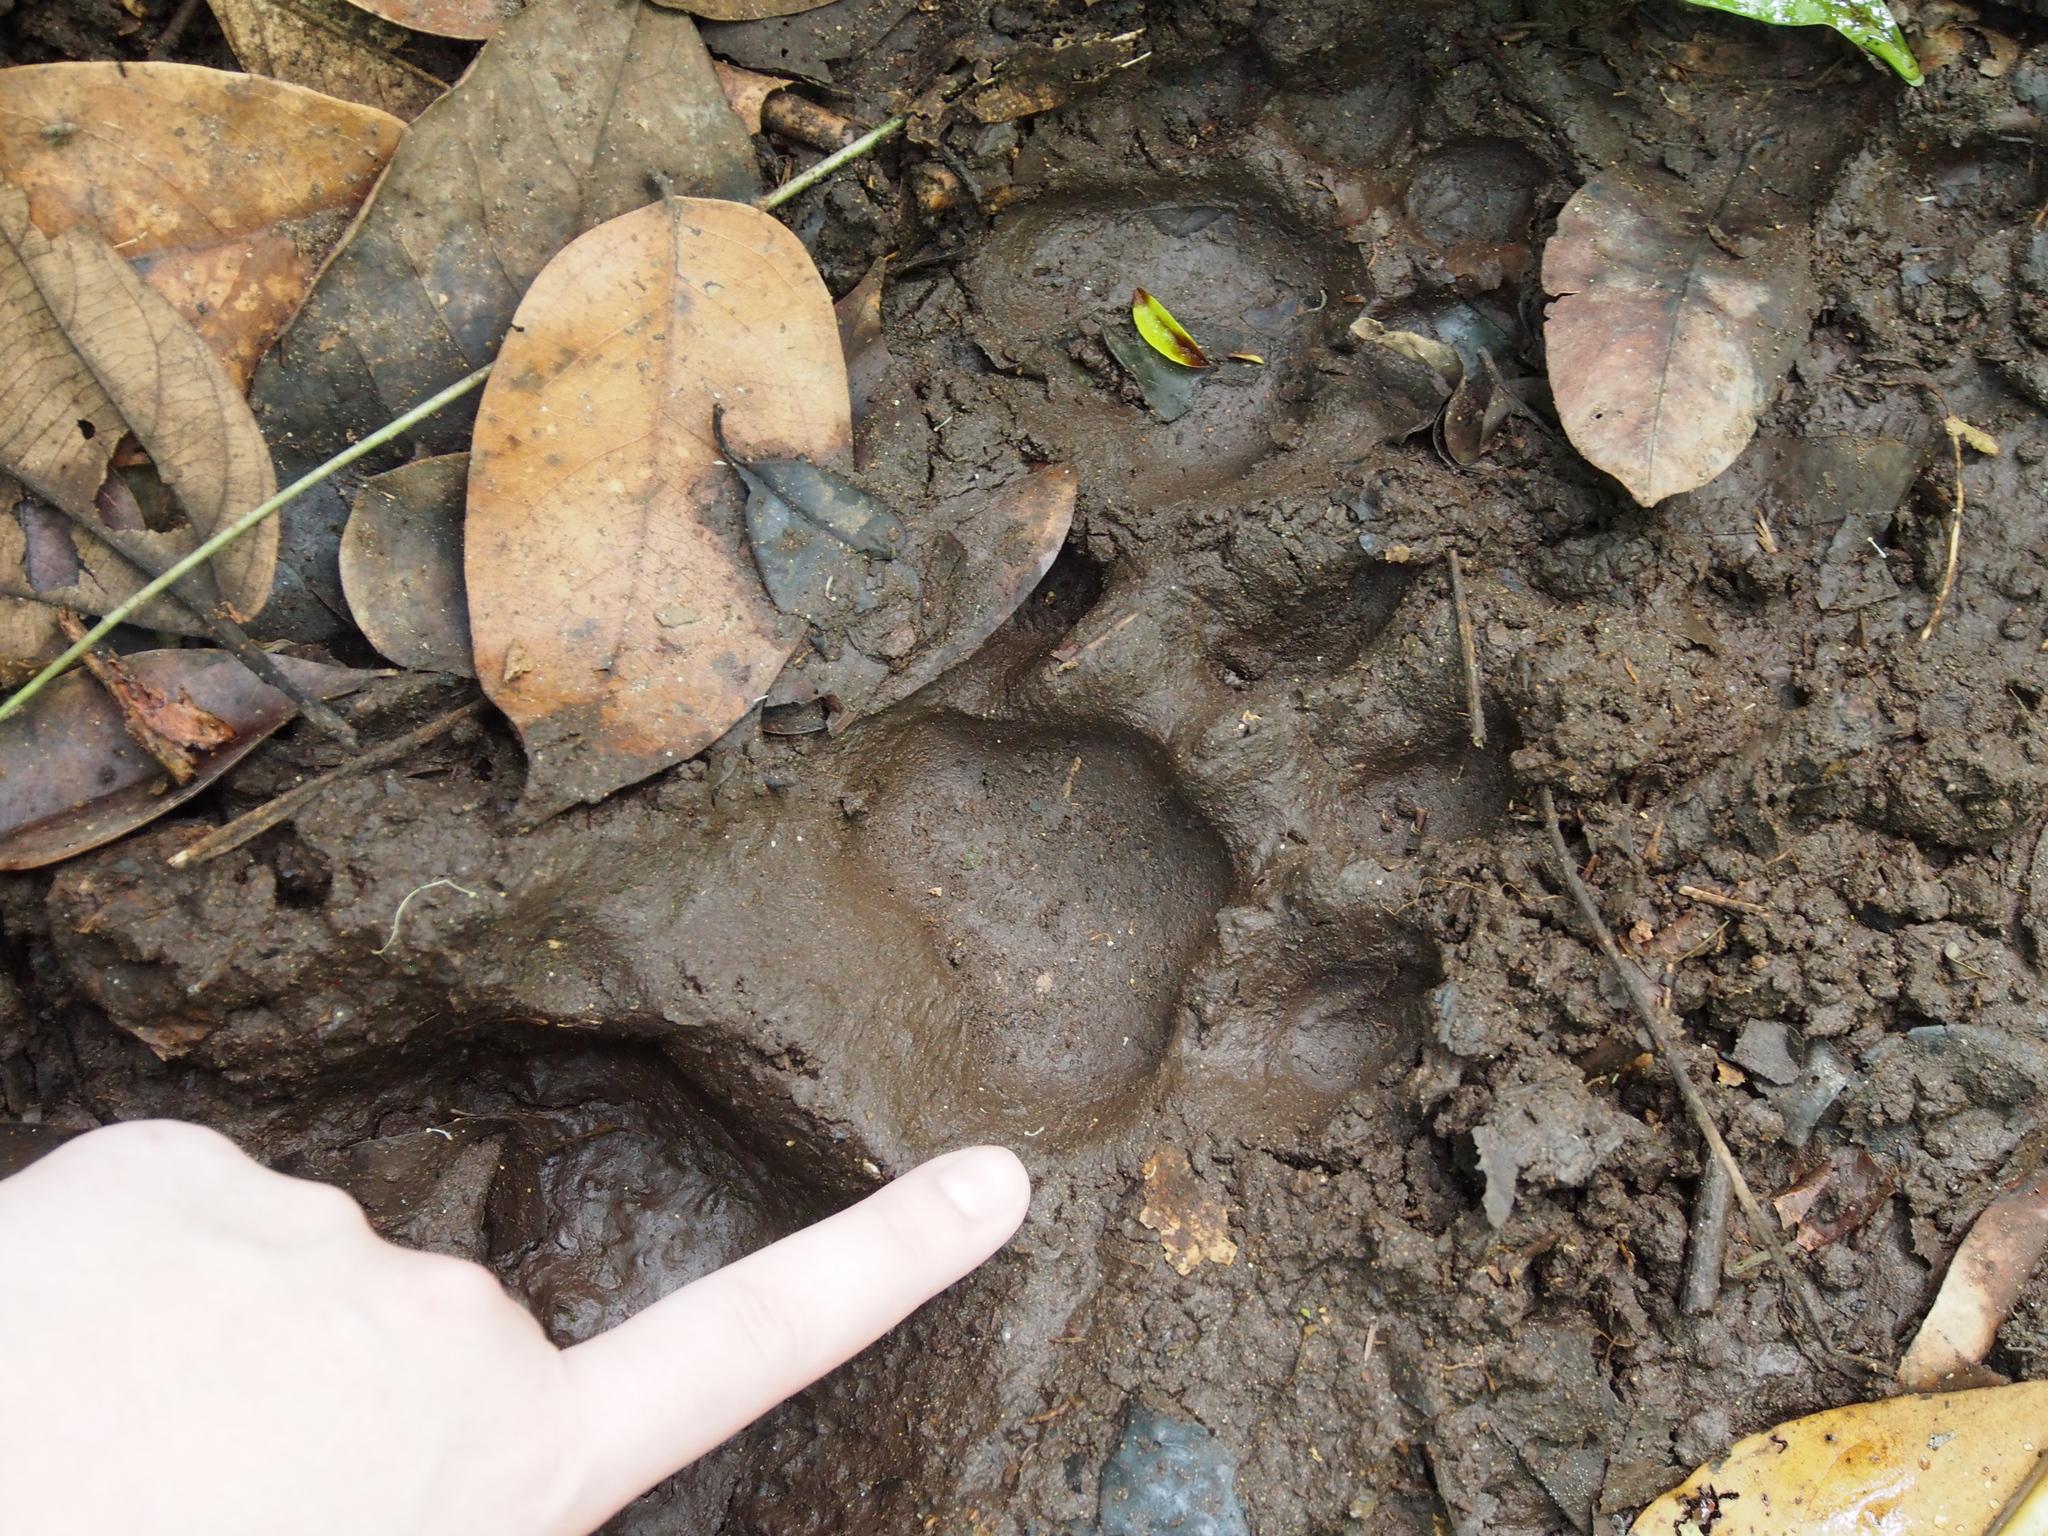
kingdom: Animalia
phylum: Chordata
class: Mammalia
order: Carnivora
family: Felidae
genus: Panthera
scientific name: Panthera onca
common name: Jaguar
